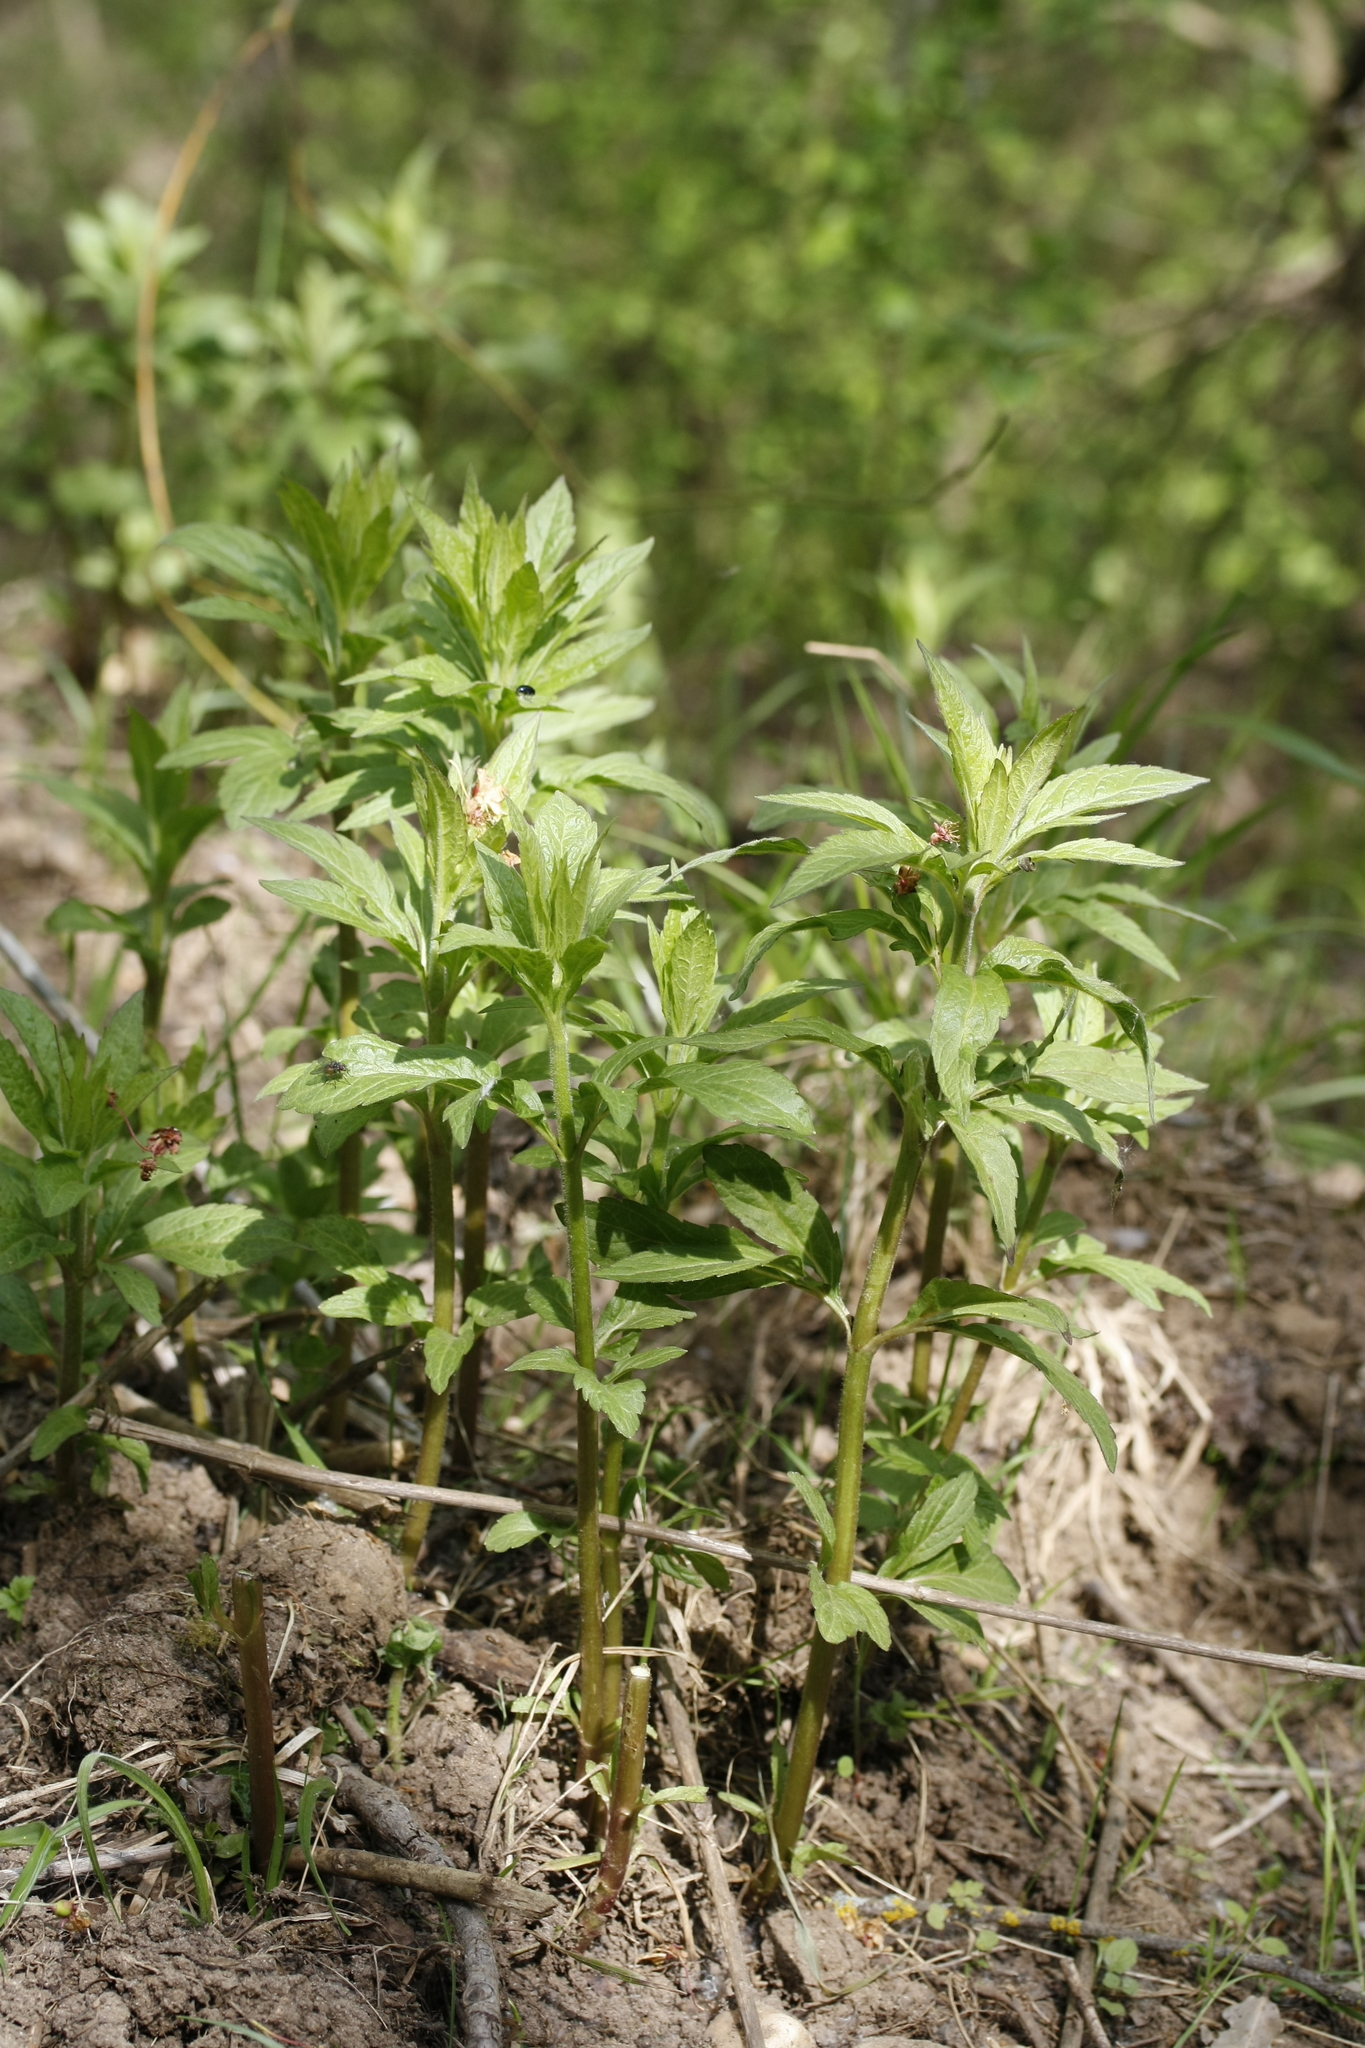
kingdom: Plantae
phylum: Tracheophyta
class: Magnoliopsida
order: Asterales
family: Asteraceae
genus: Eupatorium
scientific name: Eupatorium cannabinum
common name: Hemp-agrimony
